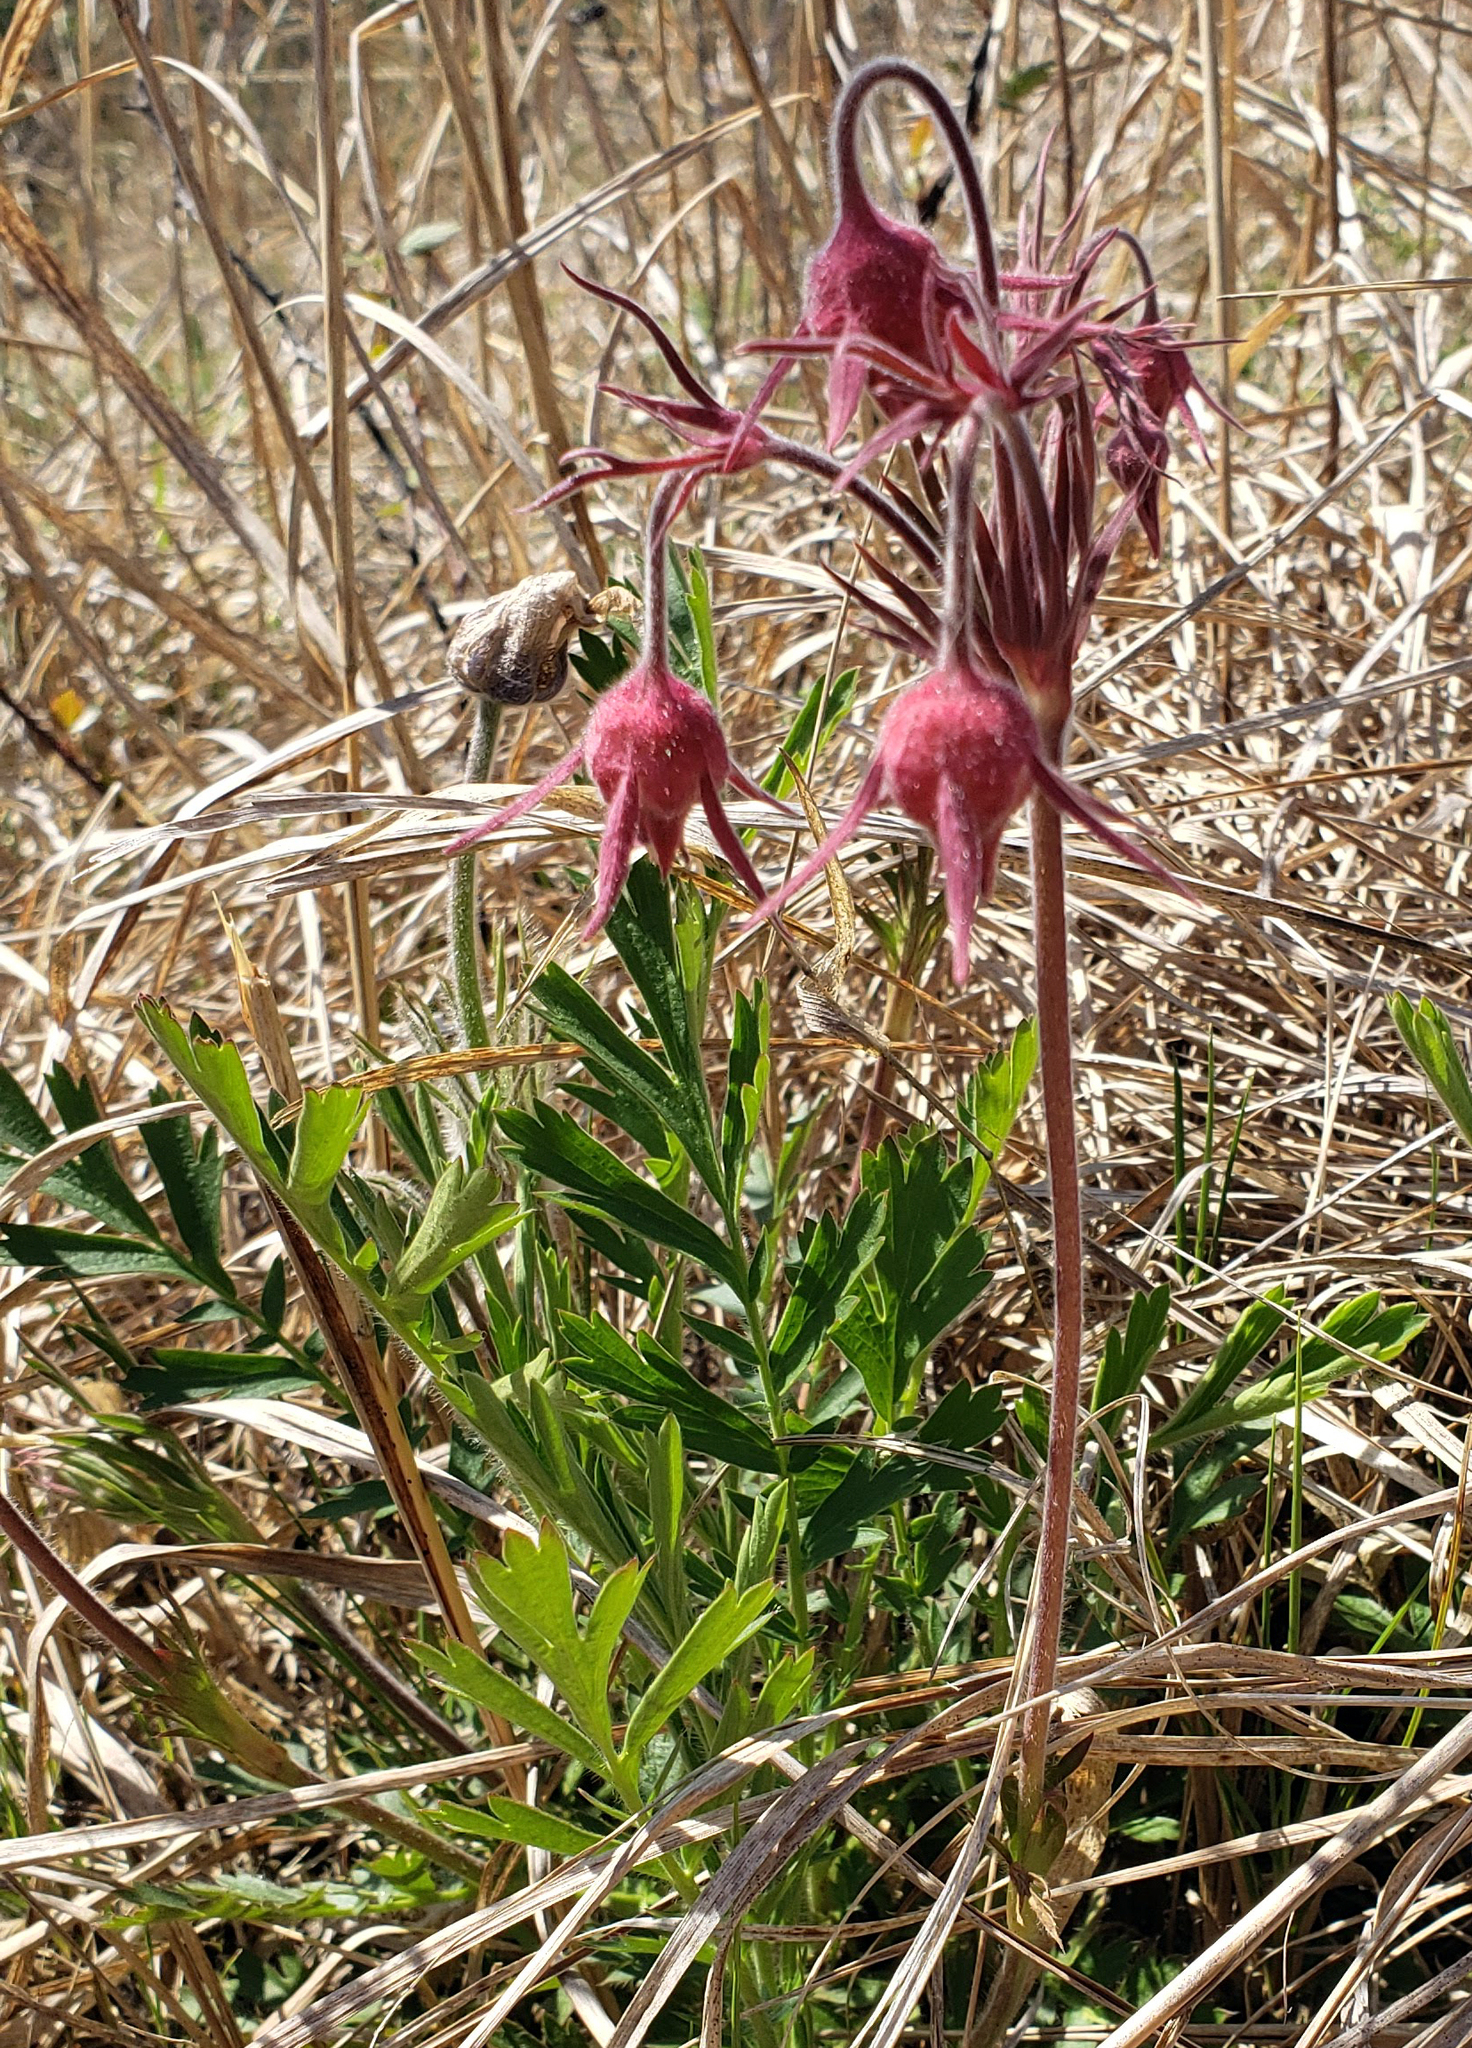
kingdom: Plantae
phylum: Tracheophyta
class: Magnoliopsida
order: Rosales
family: Rosaceae
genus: Geum
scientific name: Geum triflorum
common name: Old man's whiskers
